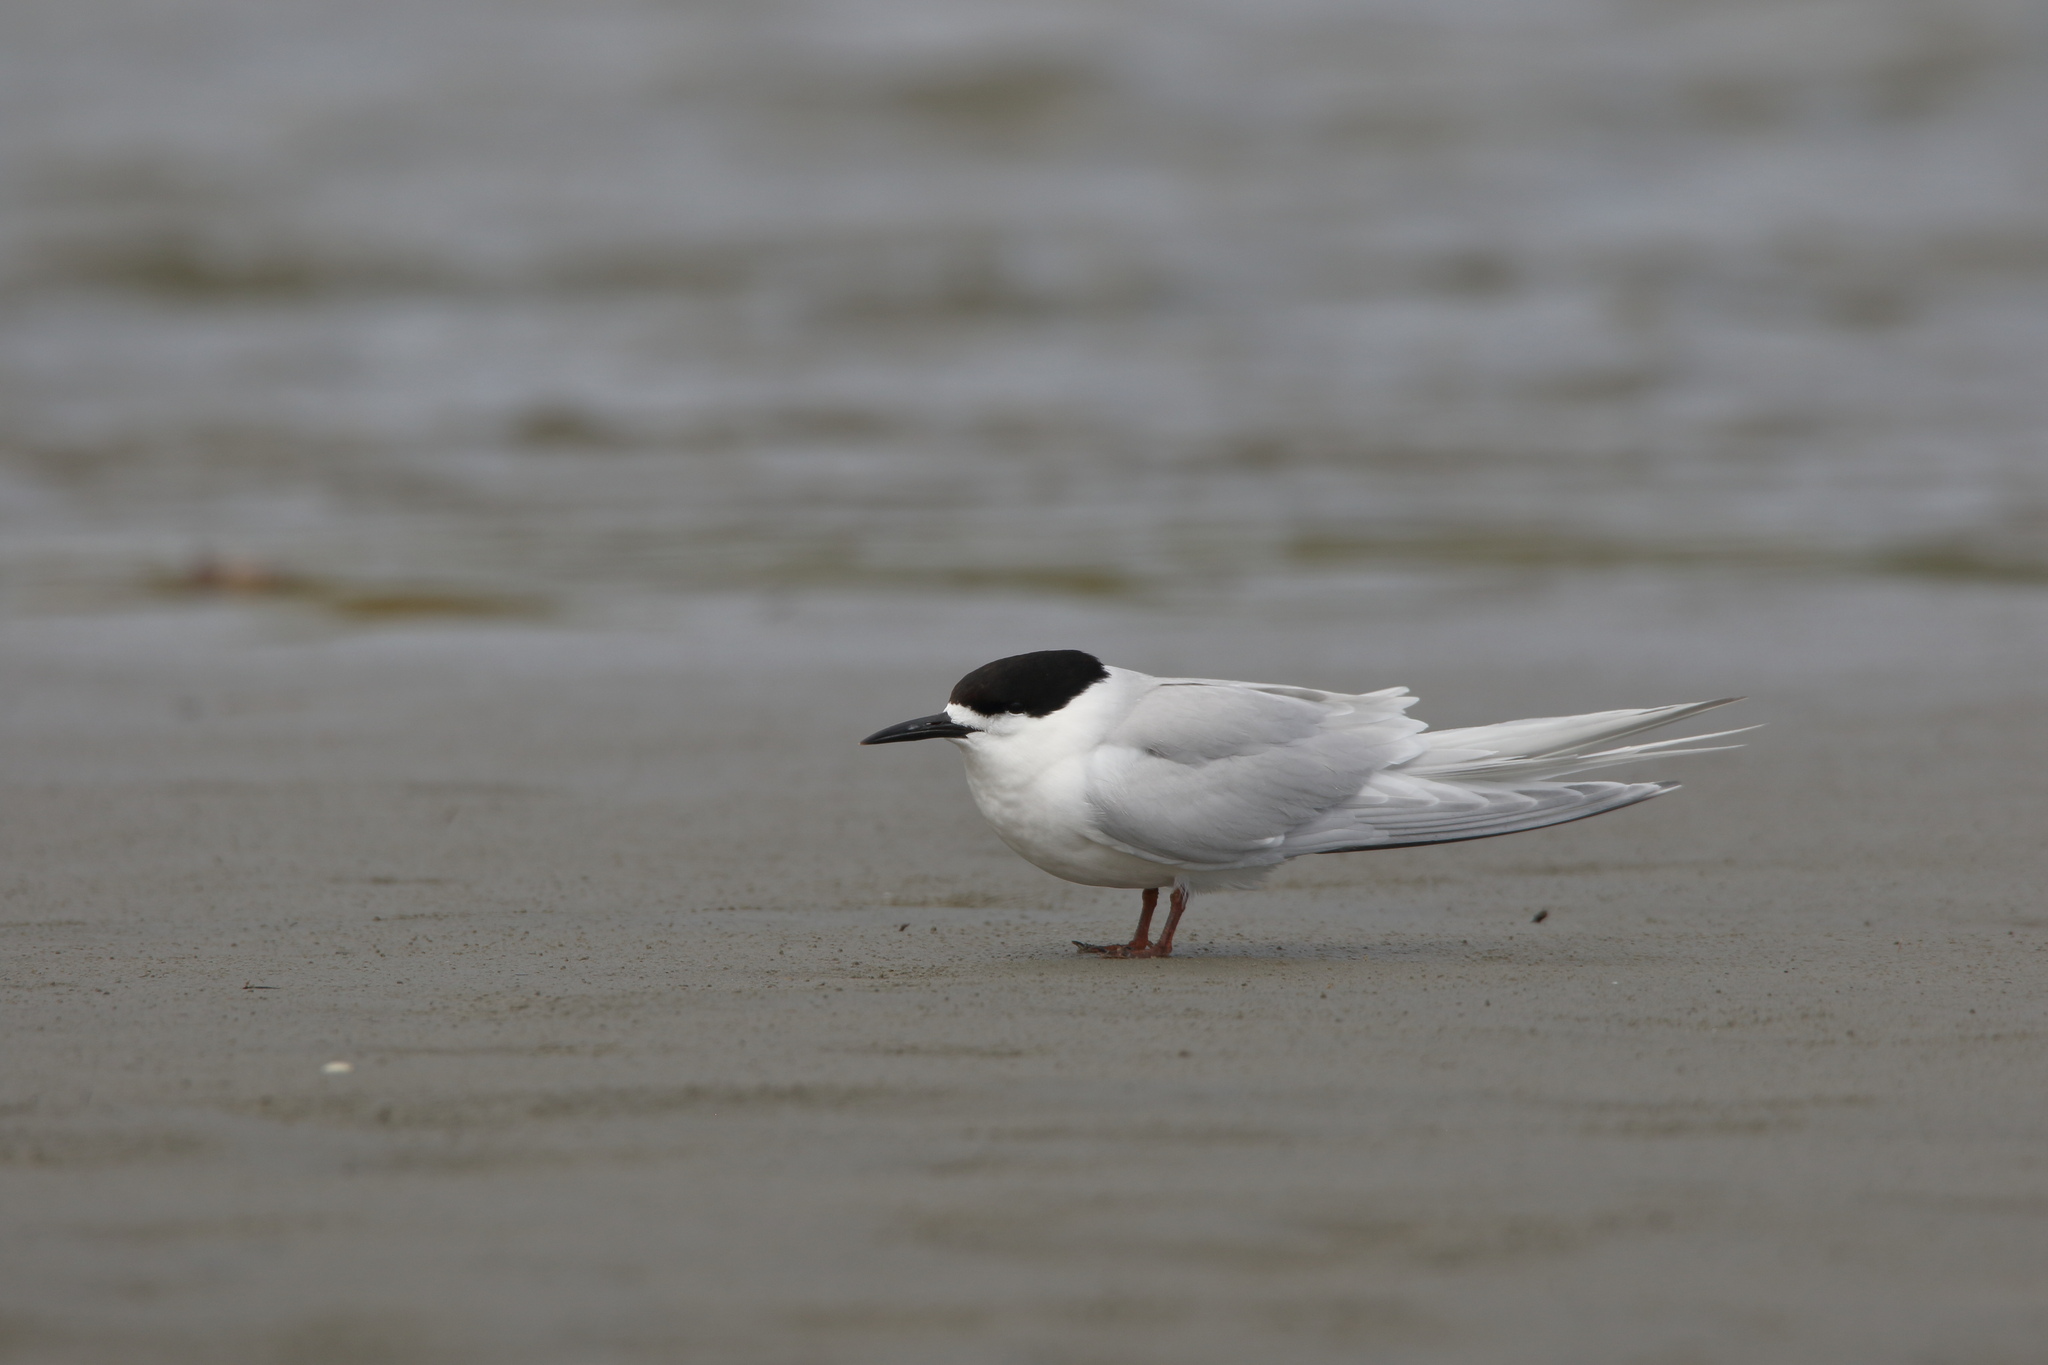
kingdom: Animalia
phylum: Chordata
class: Aves
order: Charadriiformes
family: Laridae
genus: Sterna
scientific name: Sterna striata
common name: White-fronted tern
